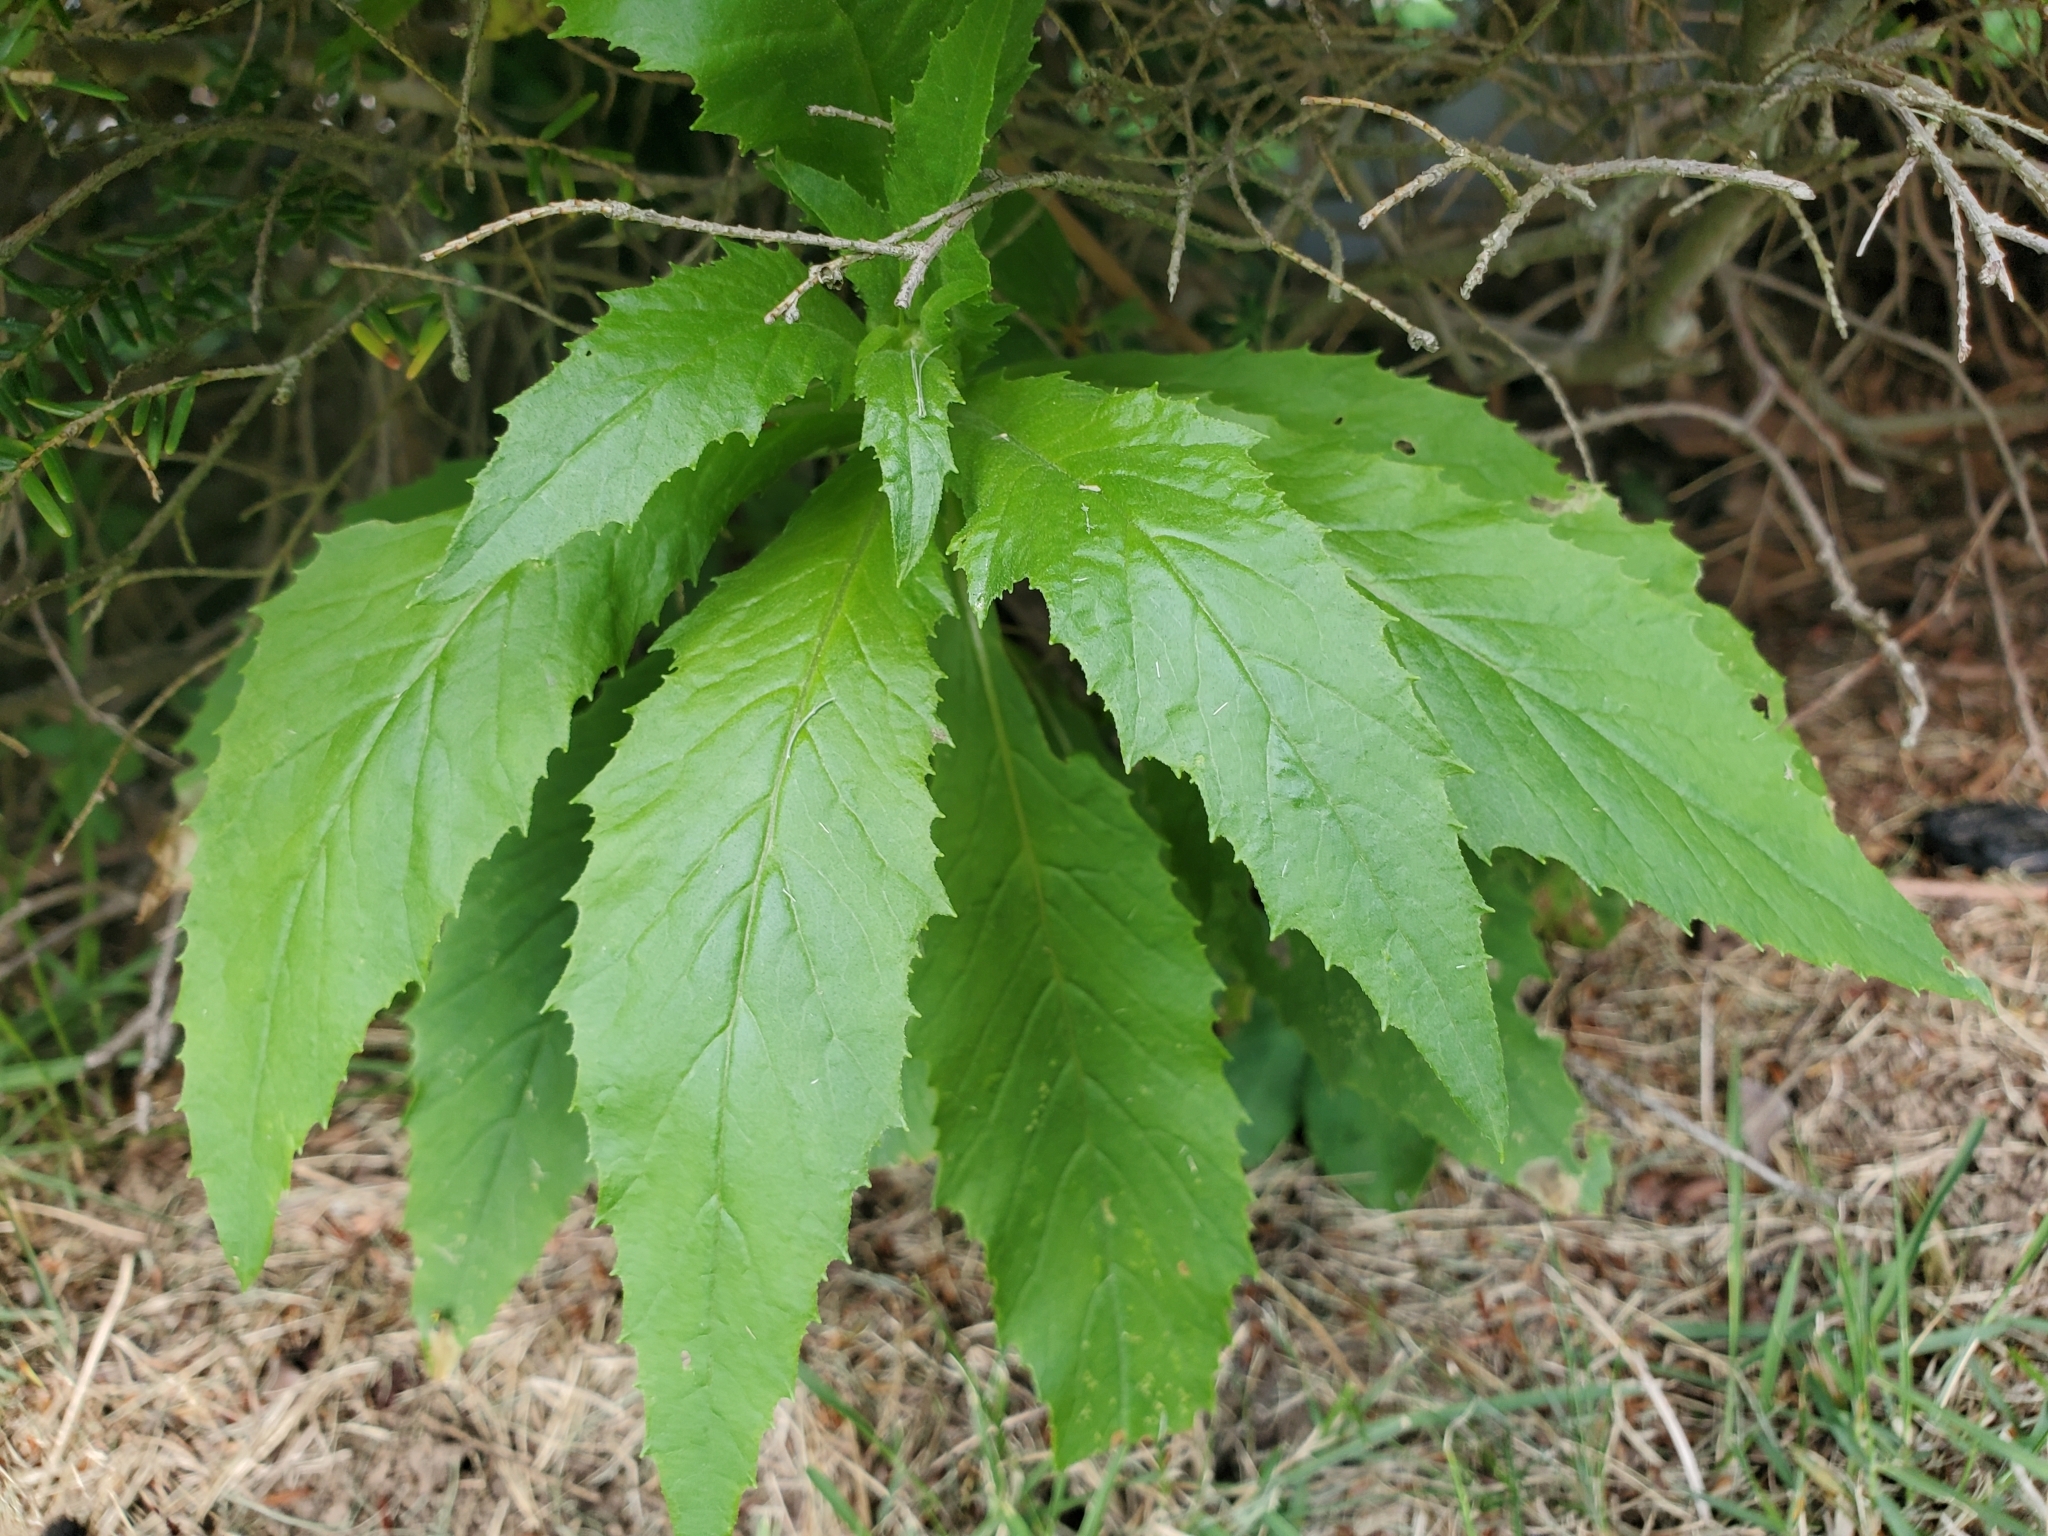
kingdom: Plantae
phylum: Tracheophyta
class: Magnoliopsida
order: Asterales
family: Asteraceae
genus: Erechtites
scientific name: Erechtites hieraciifolius
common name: American burnweed
